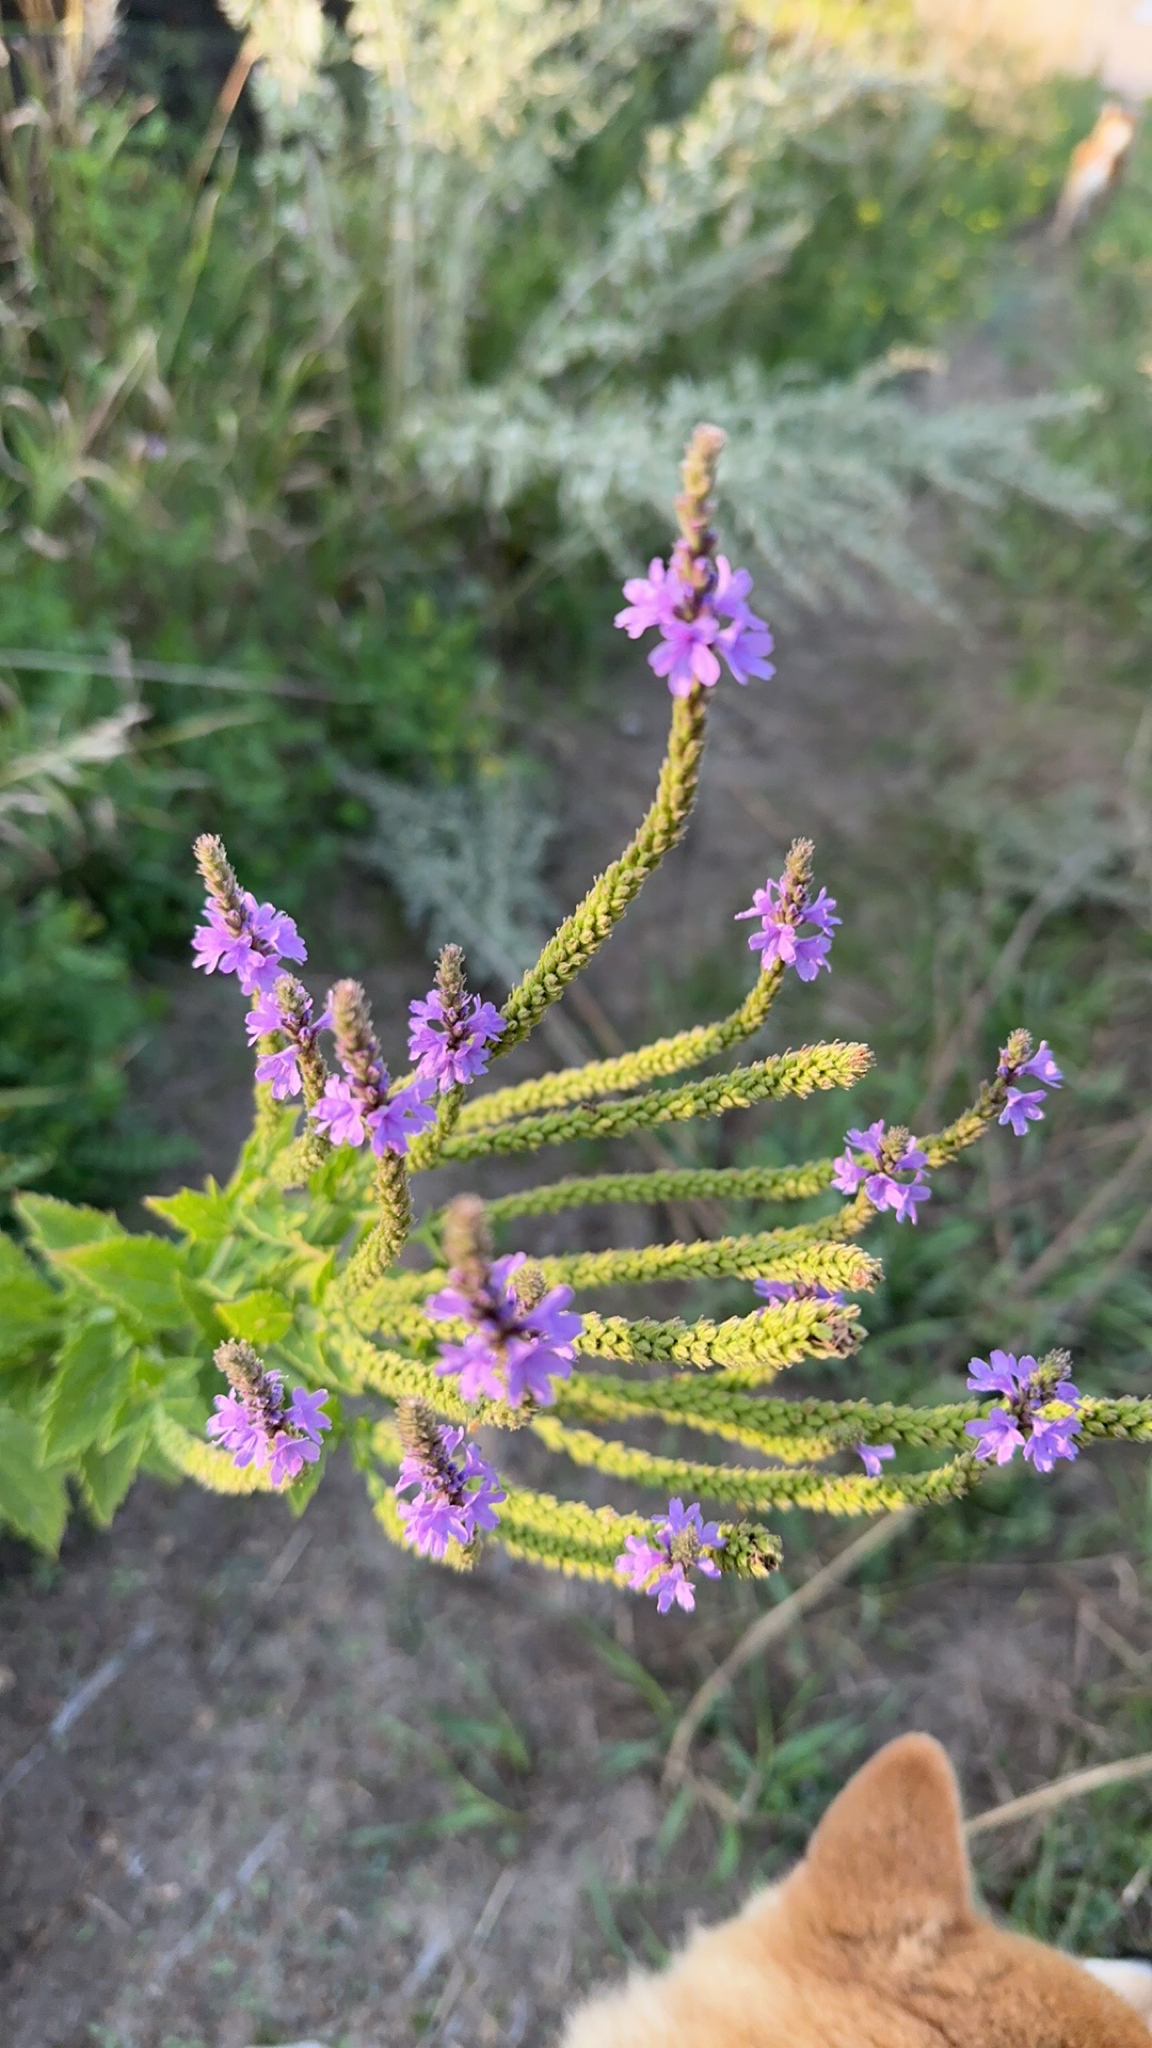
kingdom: Plantae
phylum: Tracheophyta
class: Magnoliopsida
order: Lamiales
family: Verbenaceae
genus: Verbena
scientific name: Verbena hastata
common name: American blue vervain
